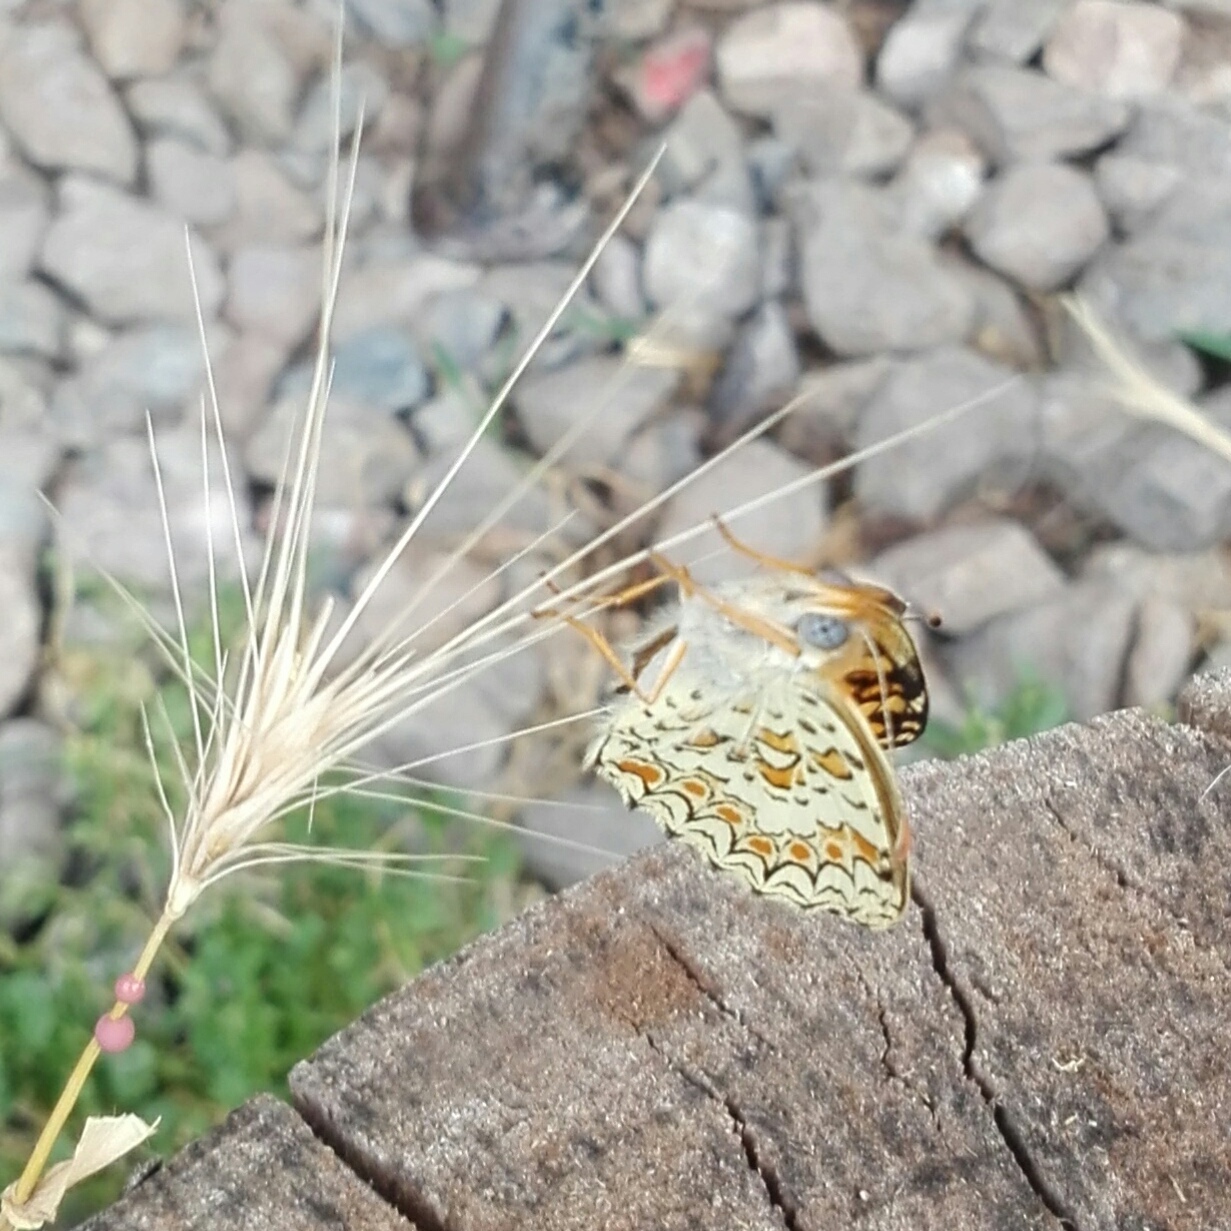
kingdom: Animalia
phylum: Arthropoda
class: Insecta
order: Lepidoptera
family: Nymphalidae
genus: Melitaea
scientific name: Melitaea phoebe
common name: Knapweed fritillary
